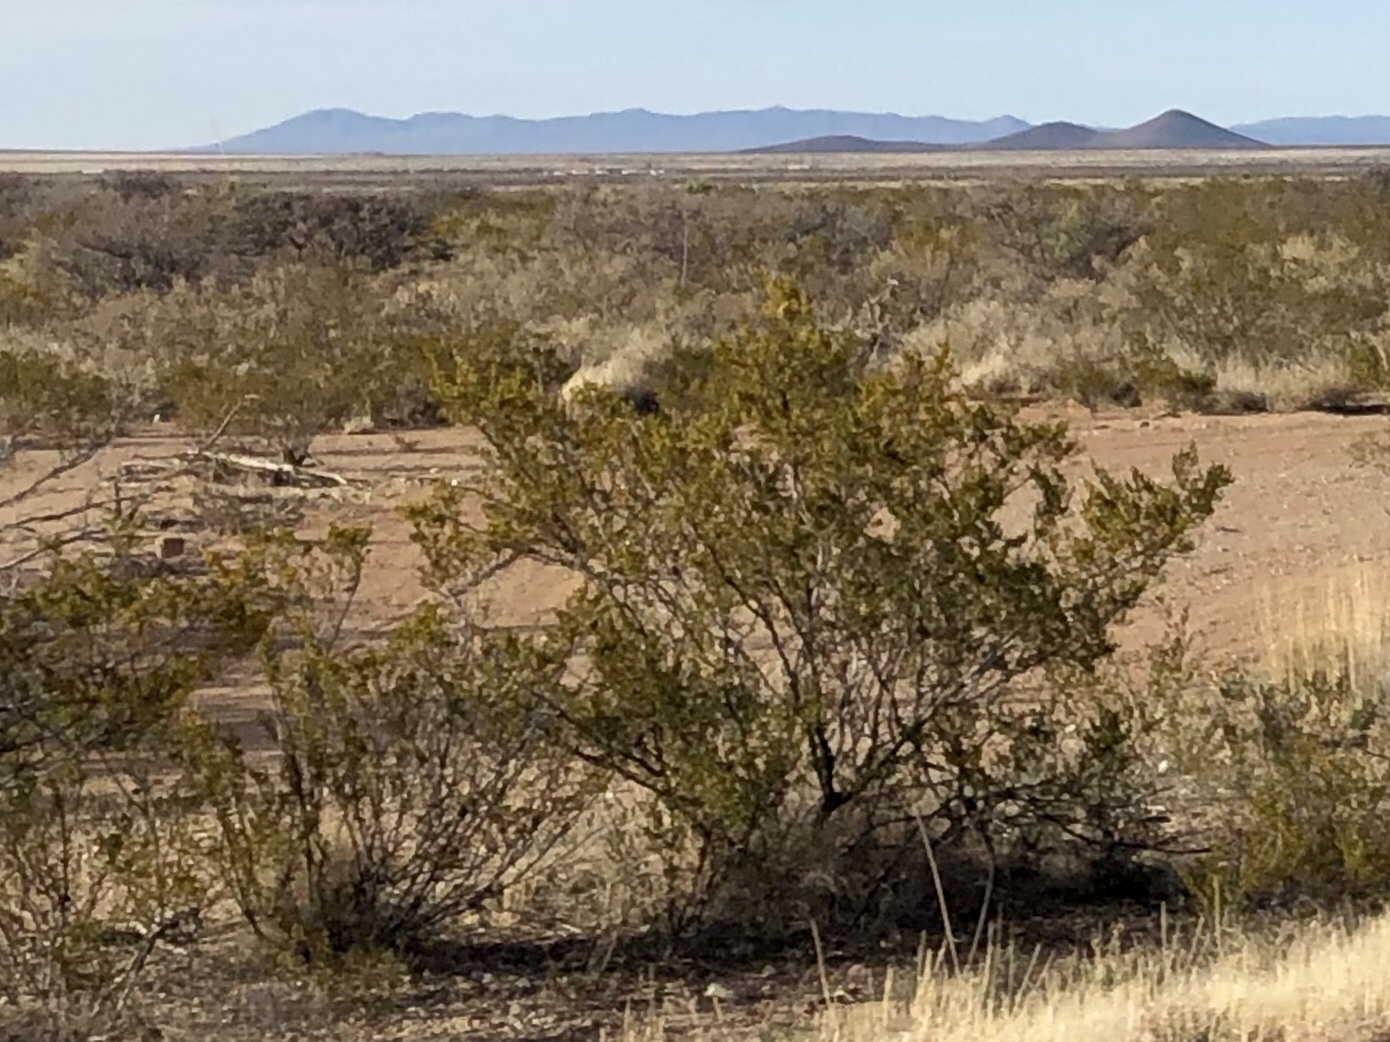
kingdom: Plantae
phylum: Tracheophyta
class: Magnoliopsida
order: Zygophyllales
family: Zygophyllaceae
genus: Larrea
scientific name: Larrea tridentata
